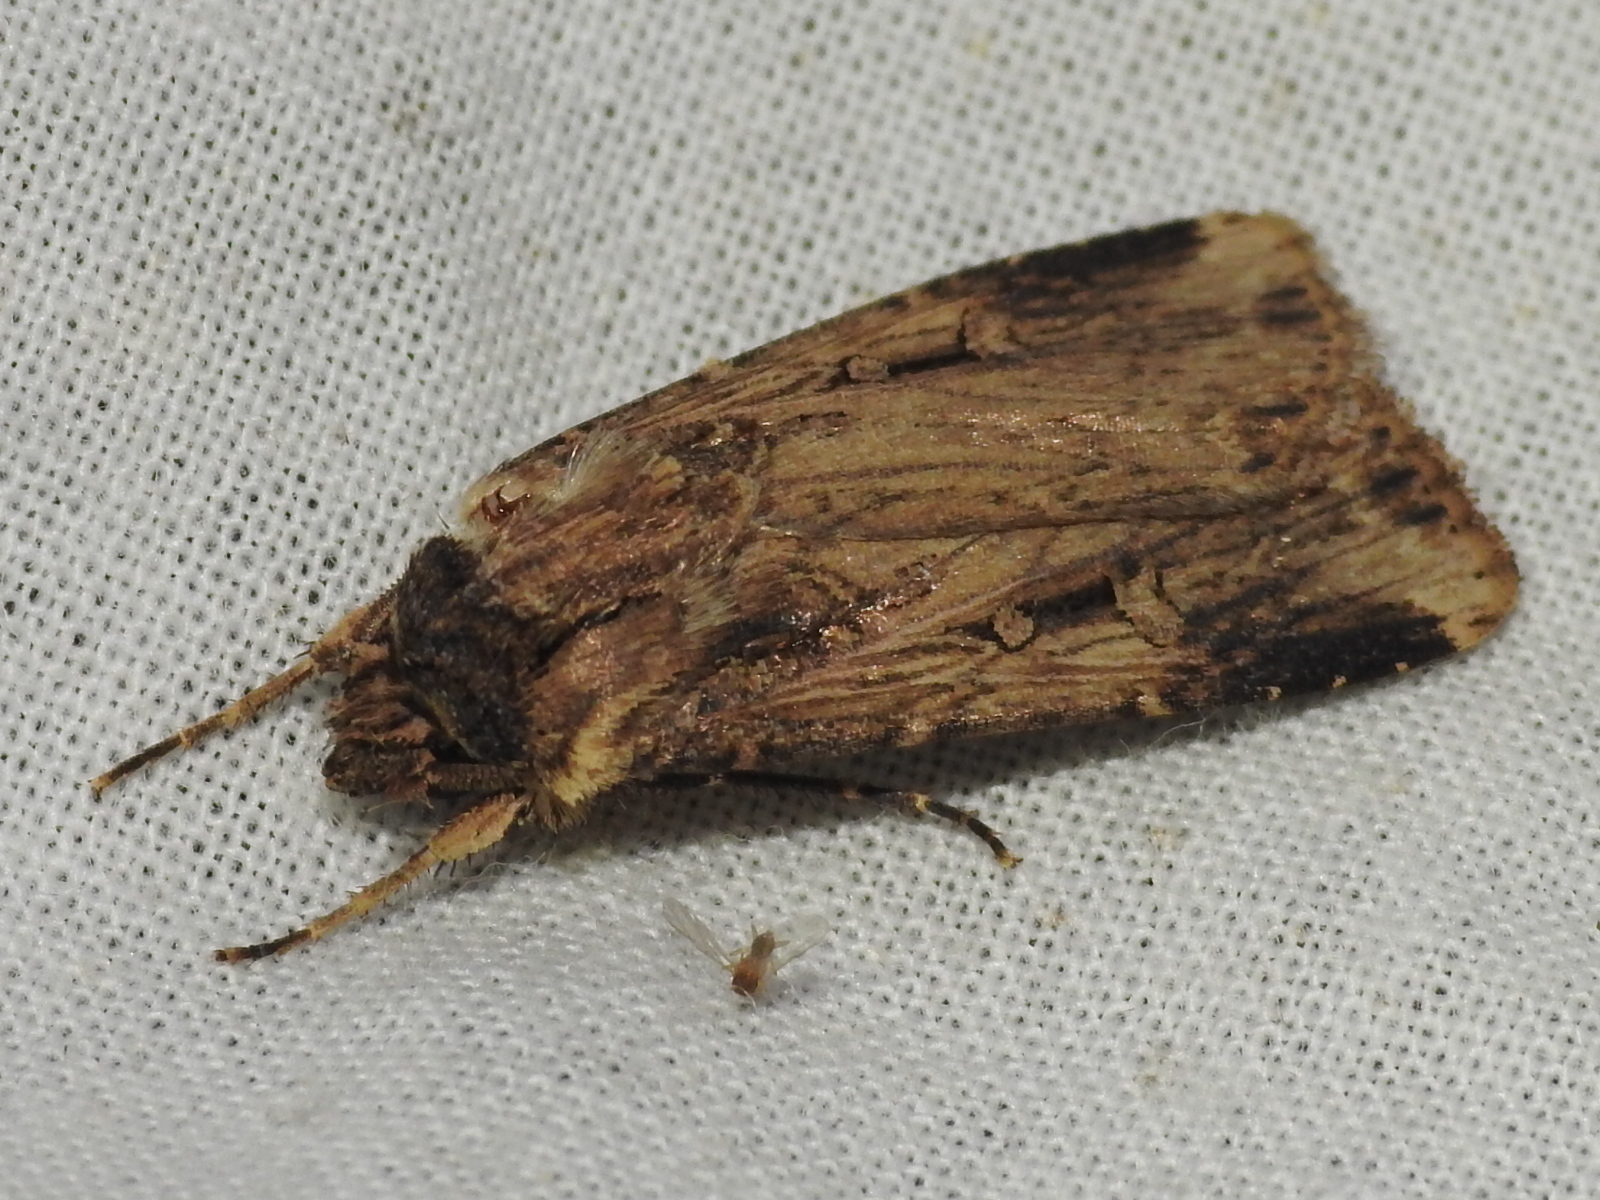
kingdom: Animalia
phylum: Arthropoda
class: Insecta
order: Lepidoptera
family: Noctuidae
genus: Feltia
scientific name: Feltia subterranea
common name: Granulate cutworm
